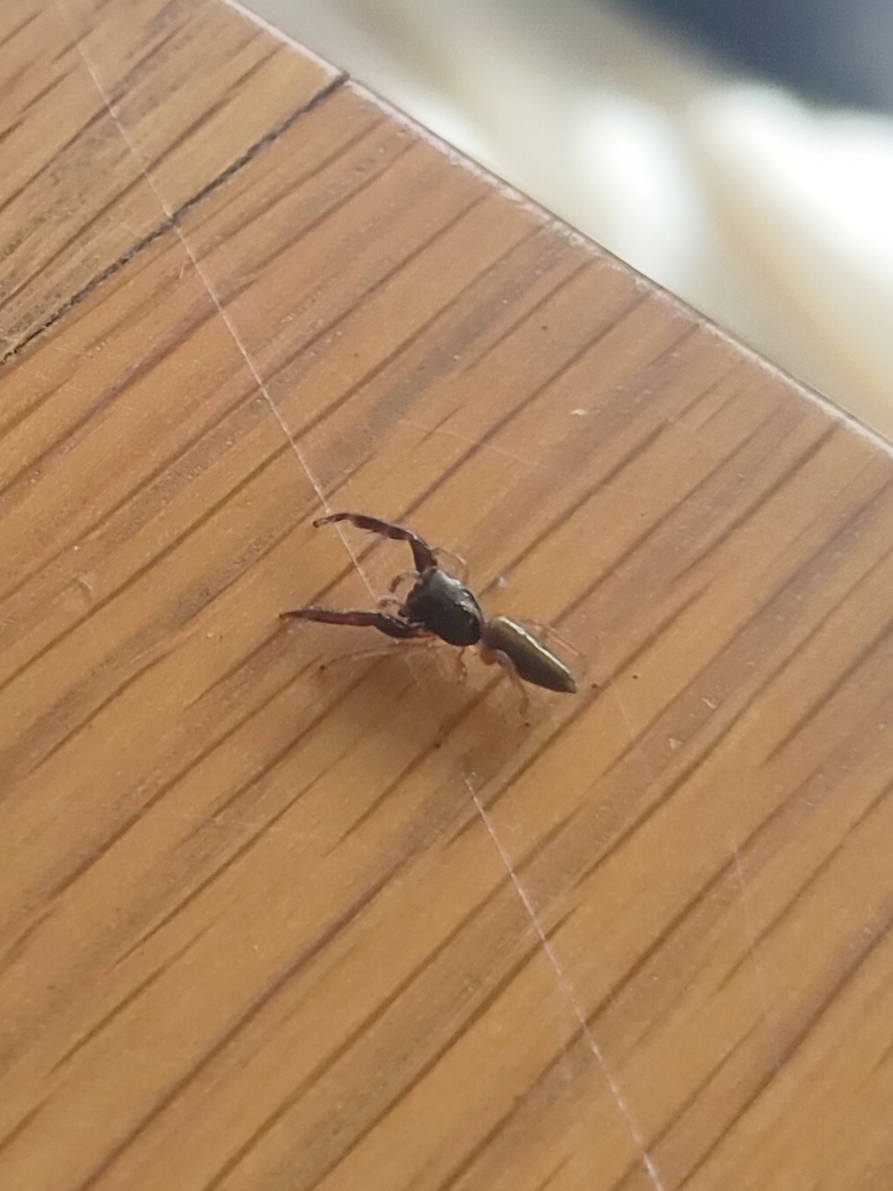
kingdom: Animalia
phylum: Arthropoda
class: Arachnida
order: Araneae
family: Salticidae
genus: Trite
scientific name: Trite planiceps
